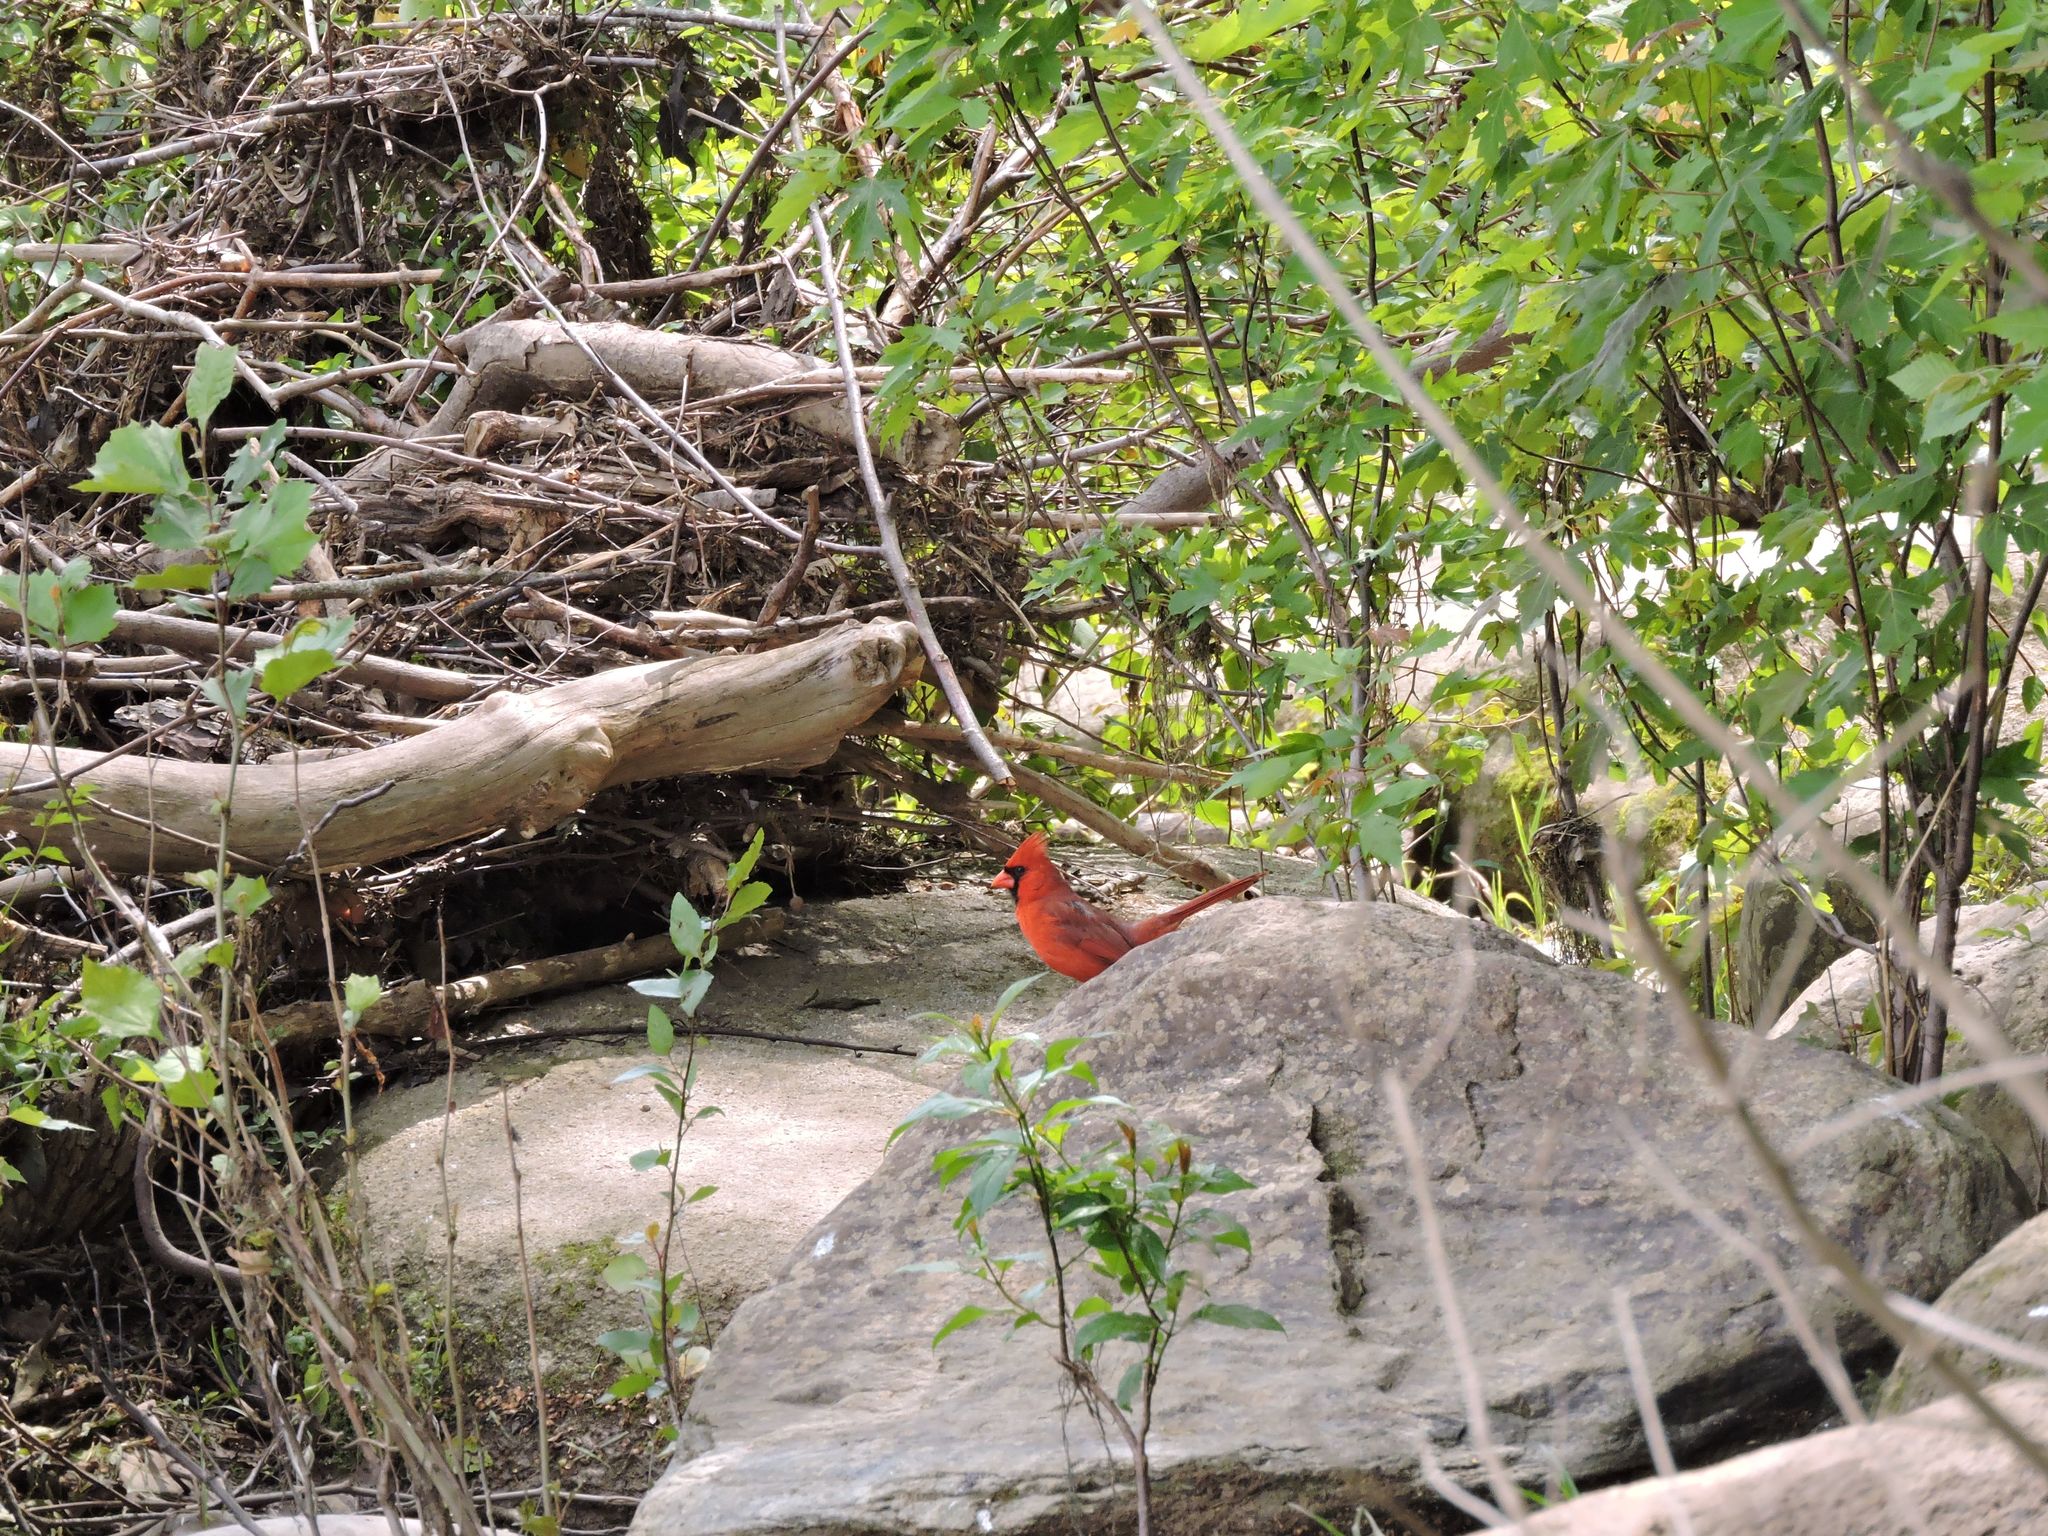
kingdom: Animalia
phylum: Chordata
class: Aves
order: Passeriformes
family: Cardinalidae
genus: Cardinalis
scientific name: Cardinalis cardinalis
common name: Northern cardinal
